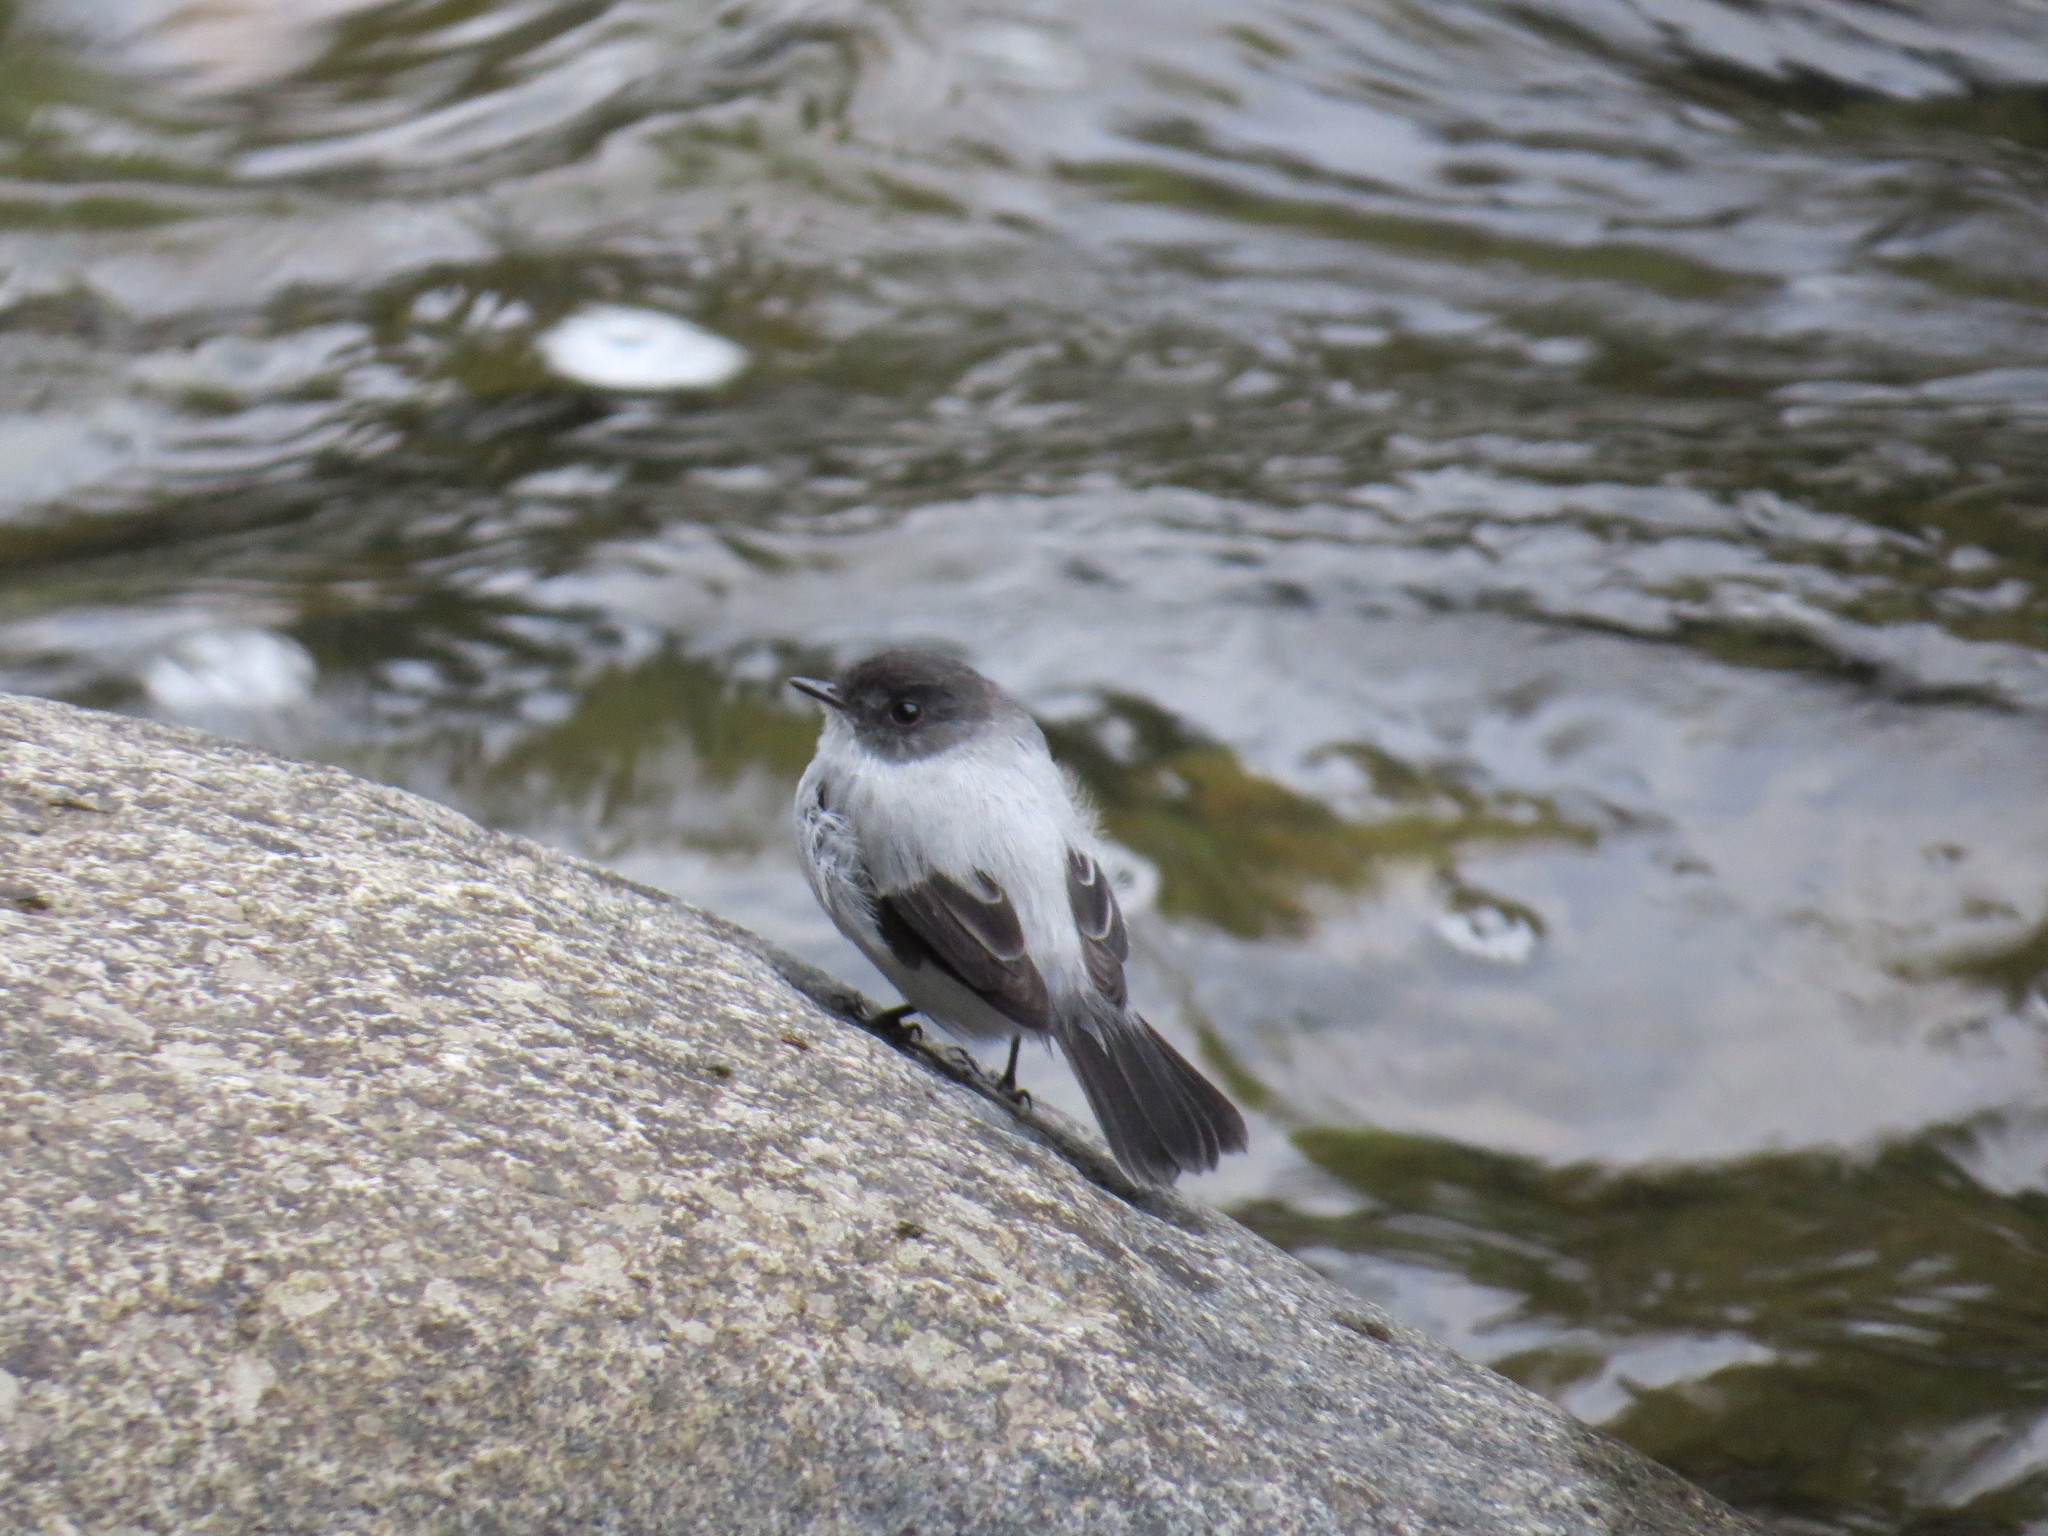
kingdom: Animalia
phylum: Chordata
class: Aves
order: Passeriformes
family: Tyrannidae
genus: Serpophaga
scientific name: Serpophaga cinerea
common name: Torrent tyrannulet
